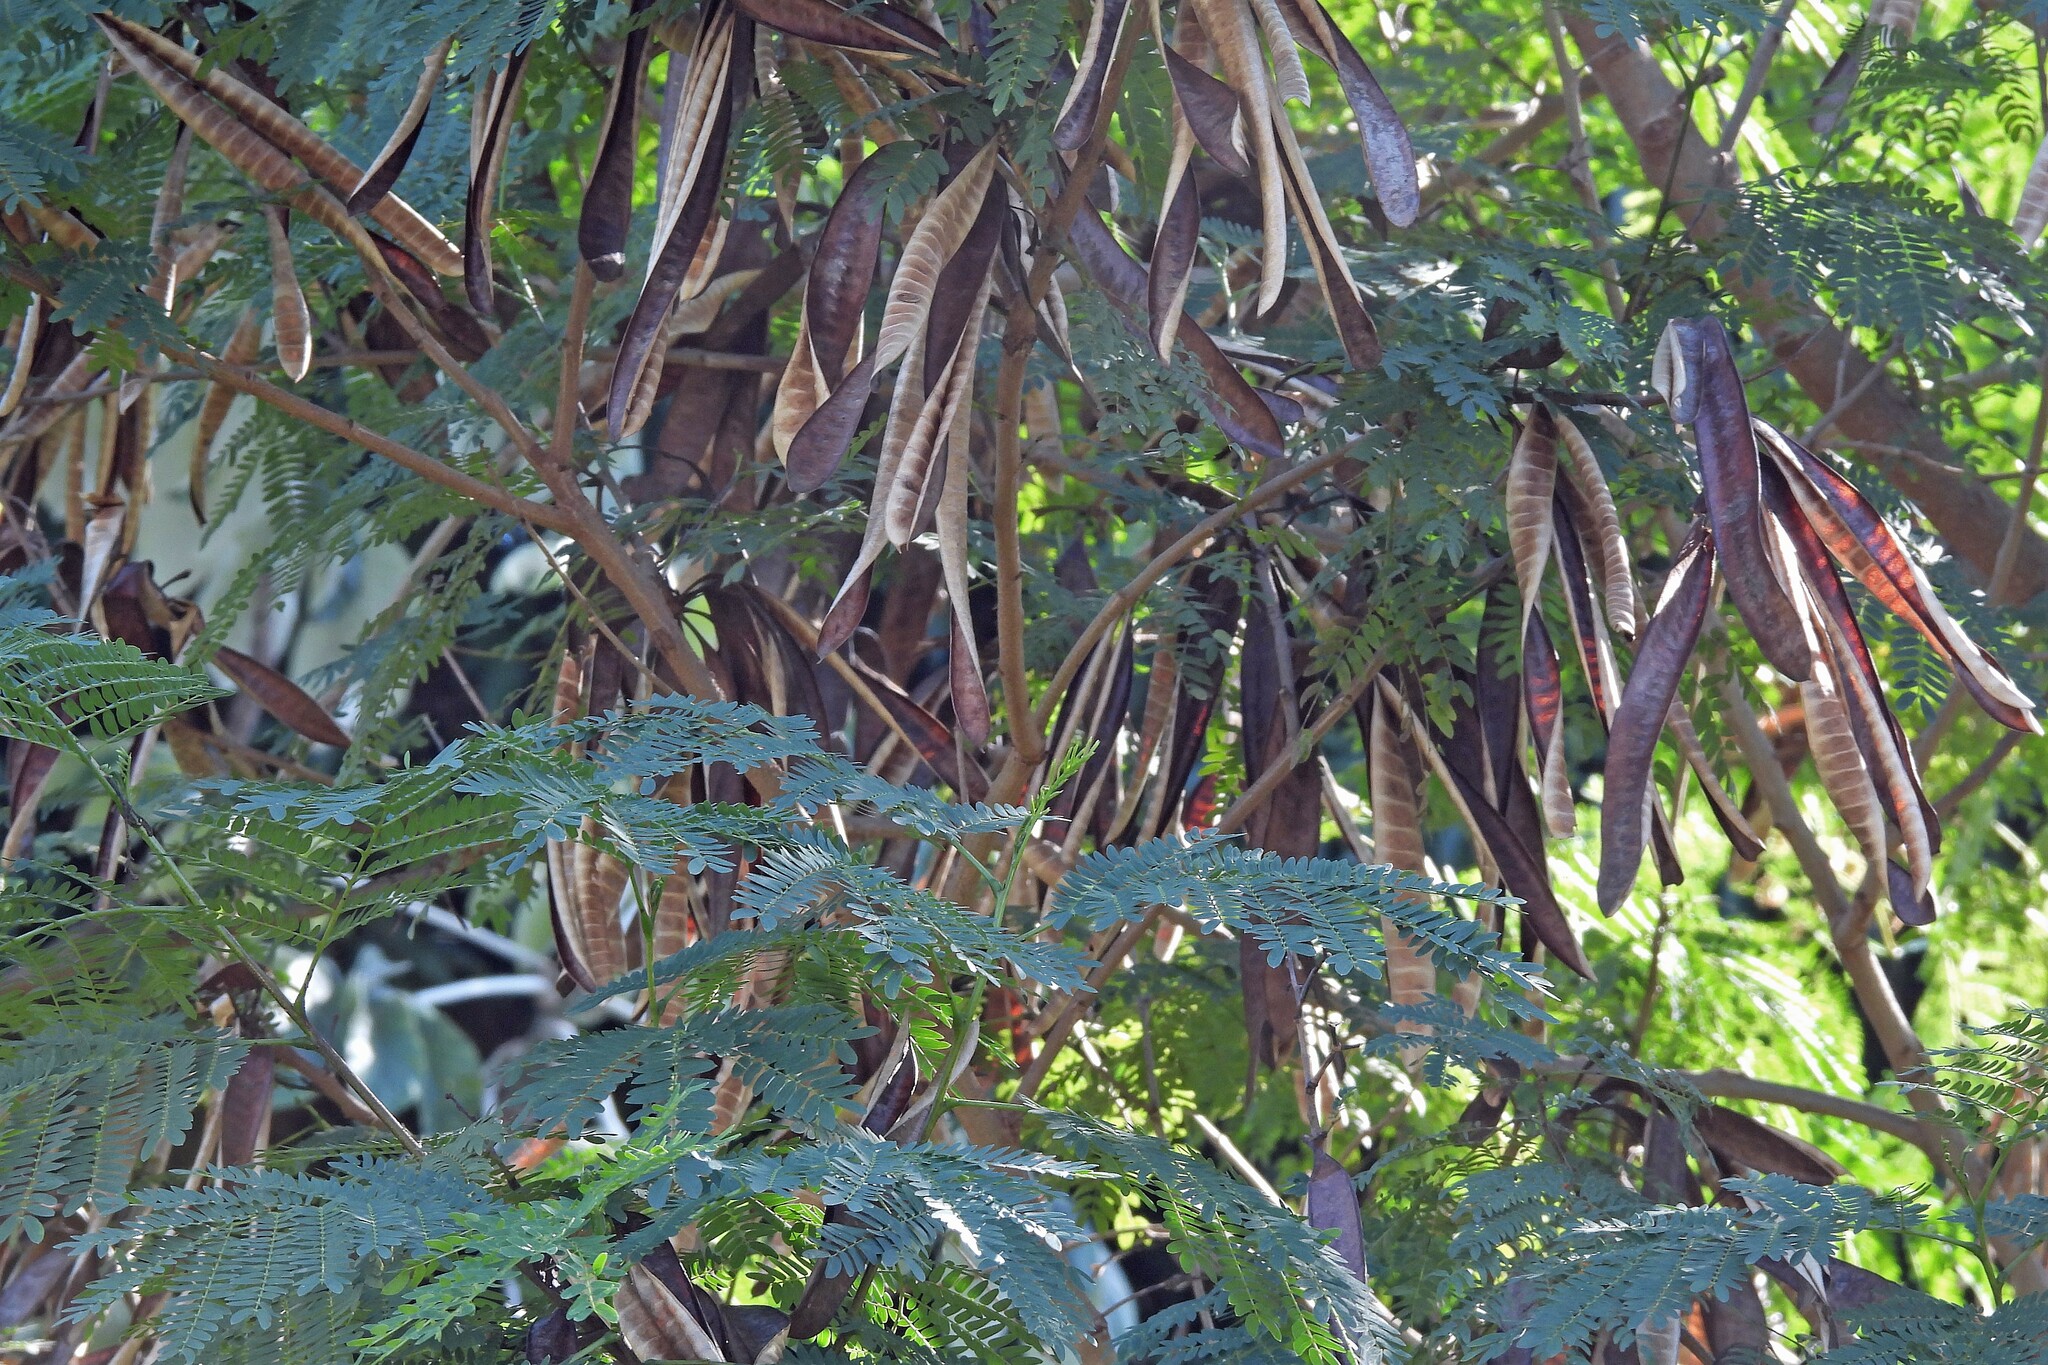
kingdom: Plantae
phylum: Tracheophyta
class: Magnoliopsida
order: Fabales
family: Fabaceae
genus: Leucaena
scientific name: Leucaena leucocephala
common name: White leadtree
